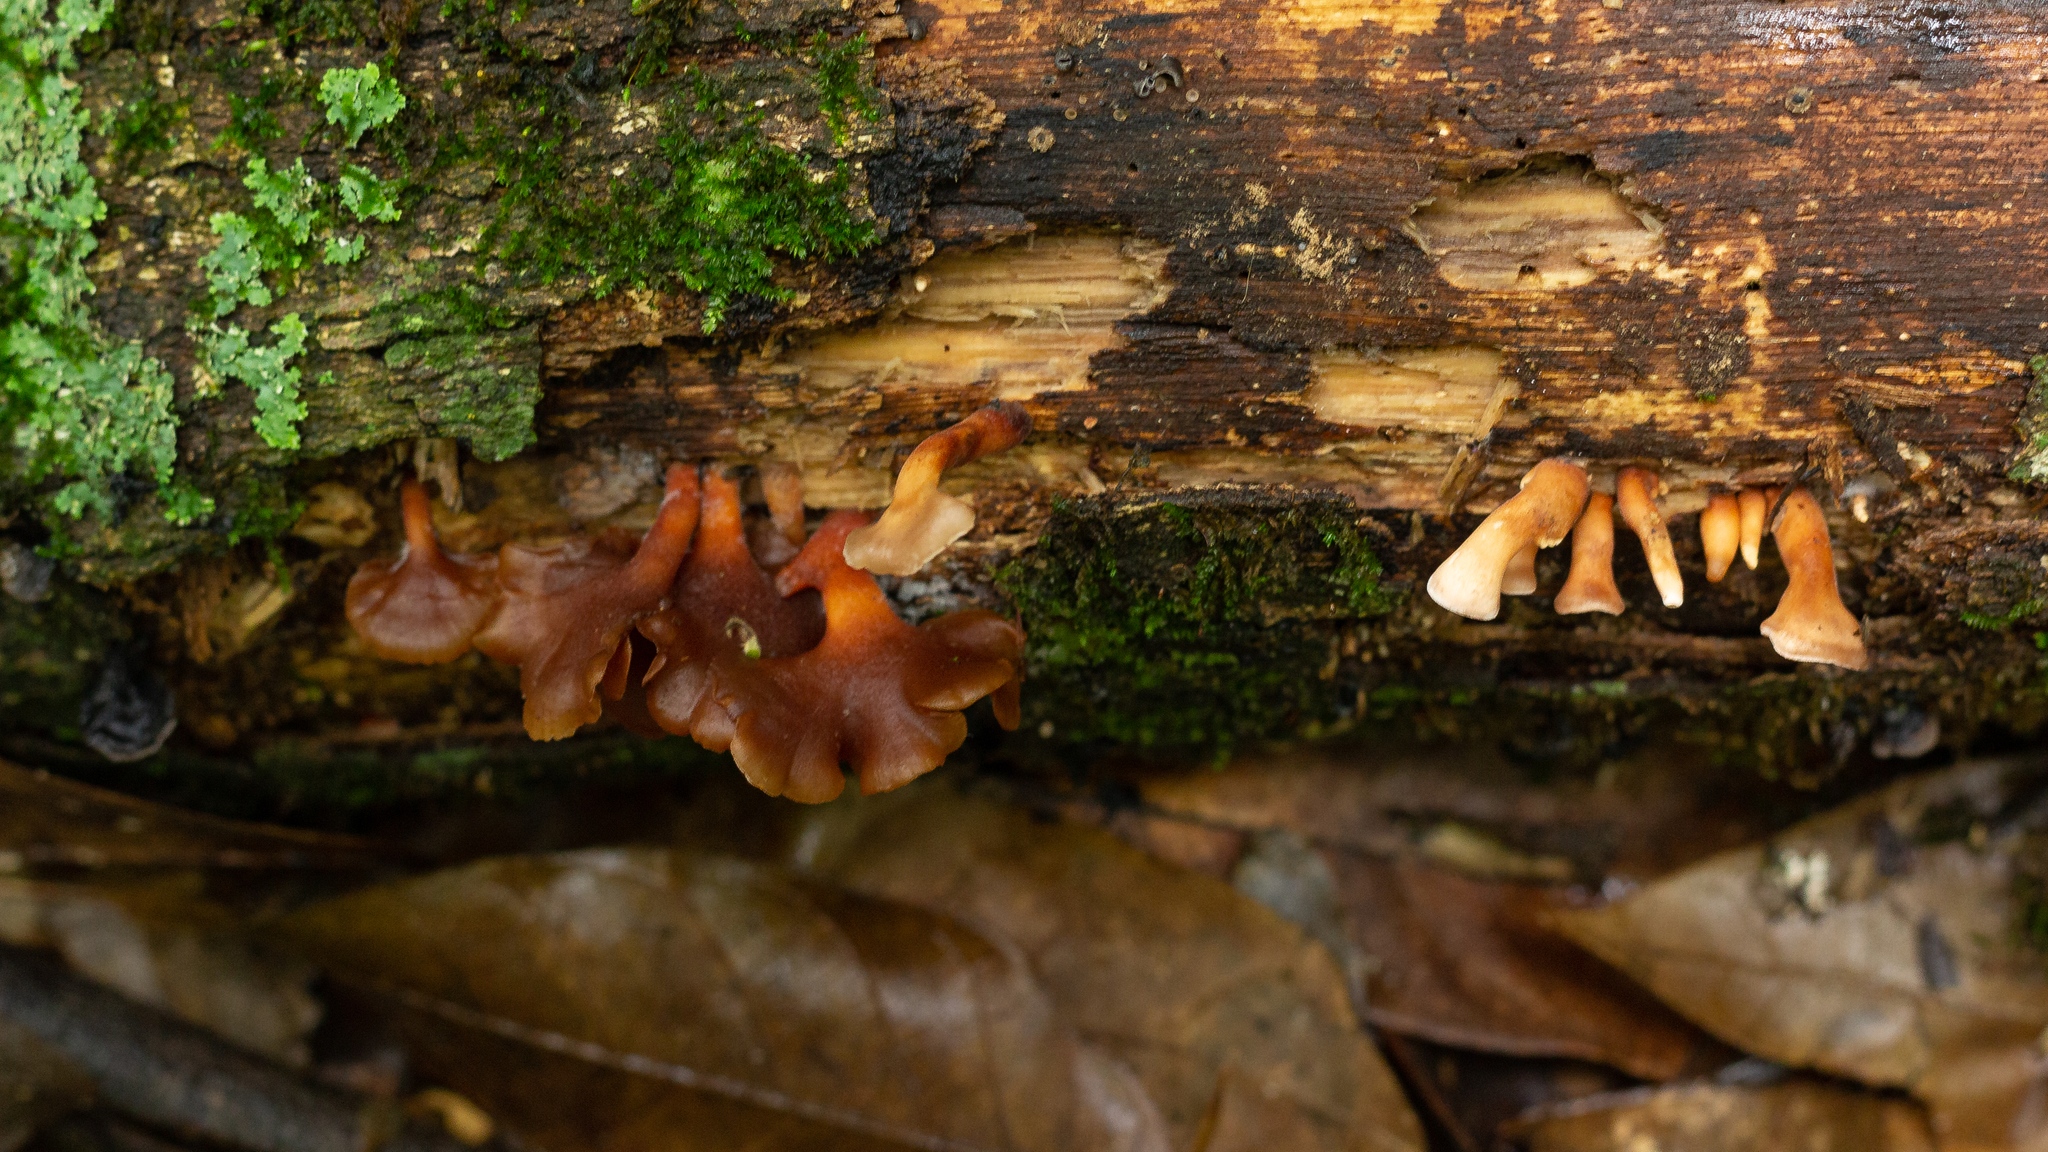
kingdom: Fungi
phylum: Basidiomycota
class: Dacrymycetes
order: Dacrymycetales
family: Dacrymycetaceae
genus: Dacryopinax
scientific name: Dacryopinax elegans
